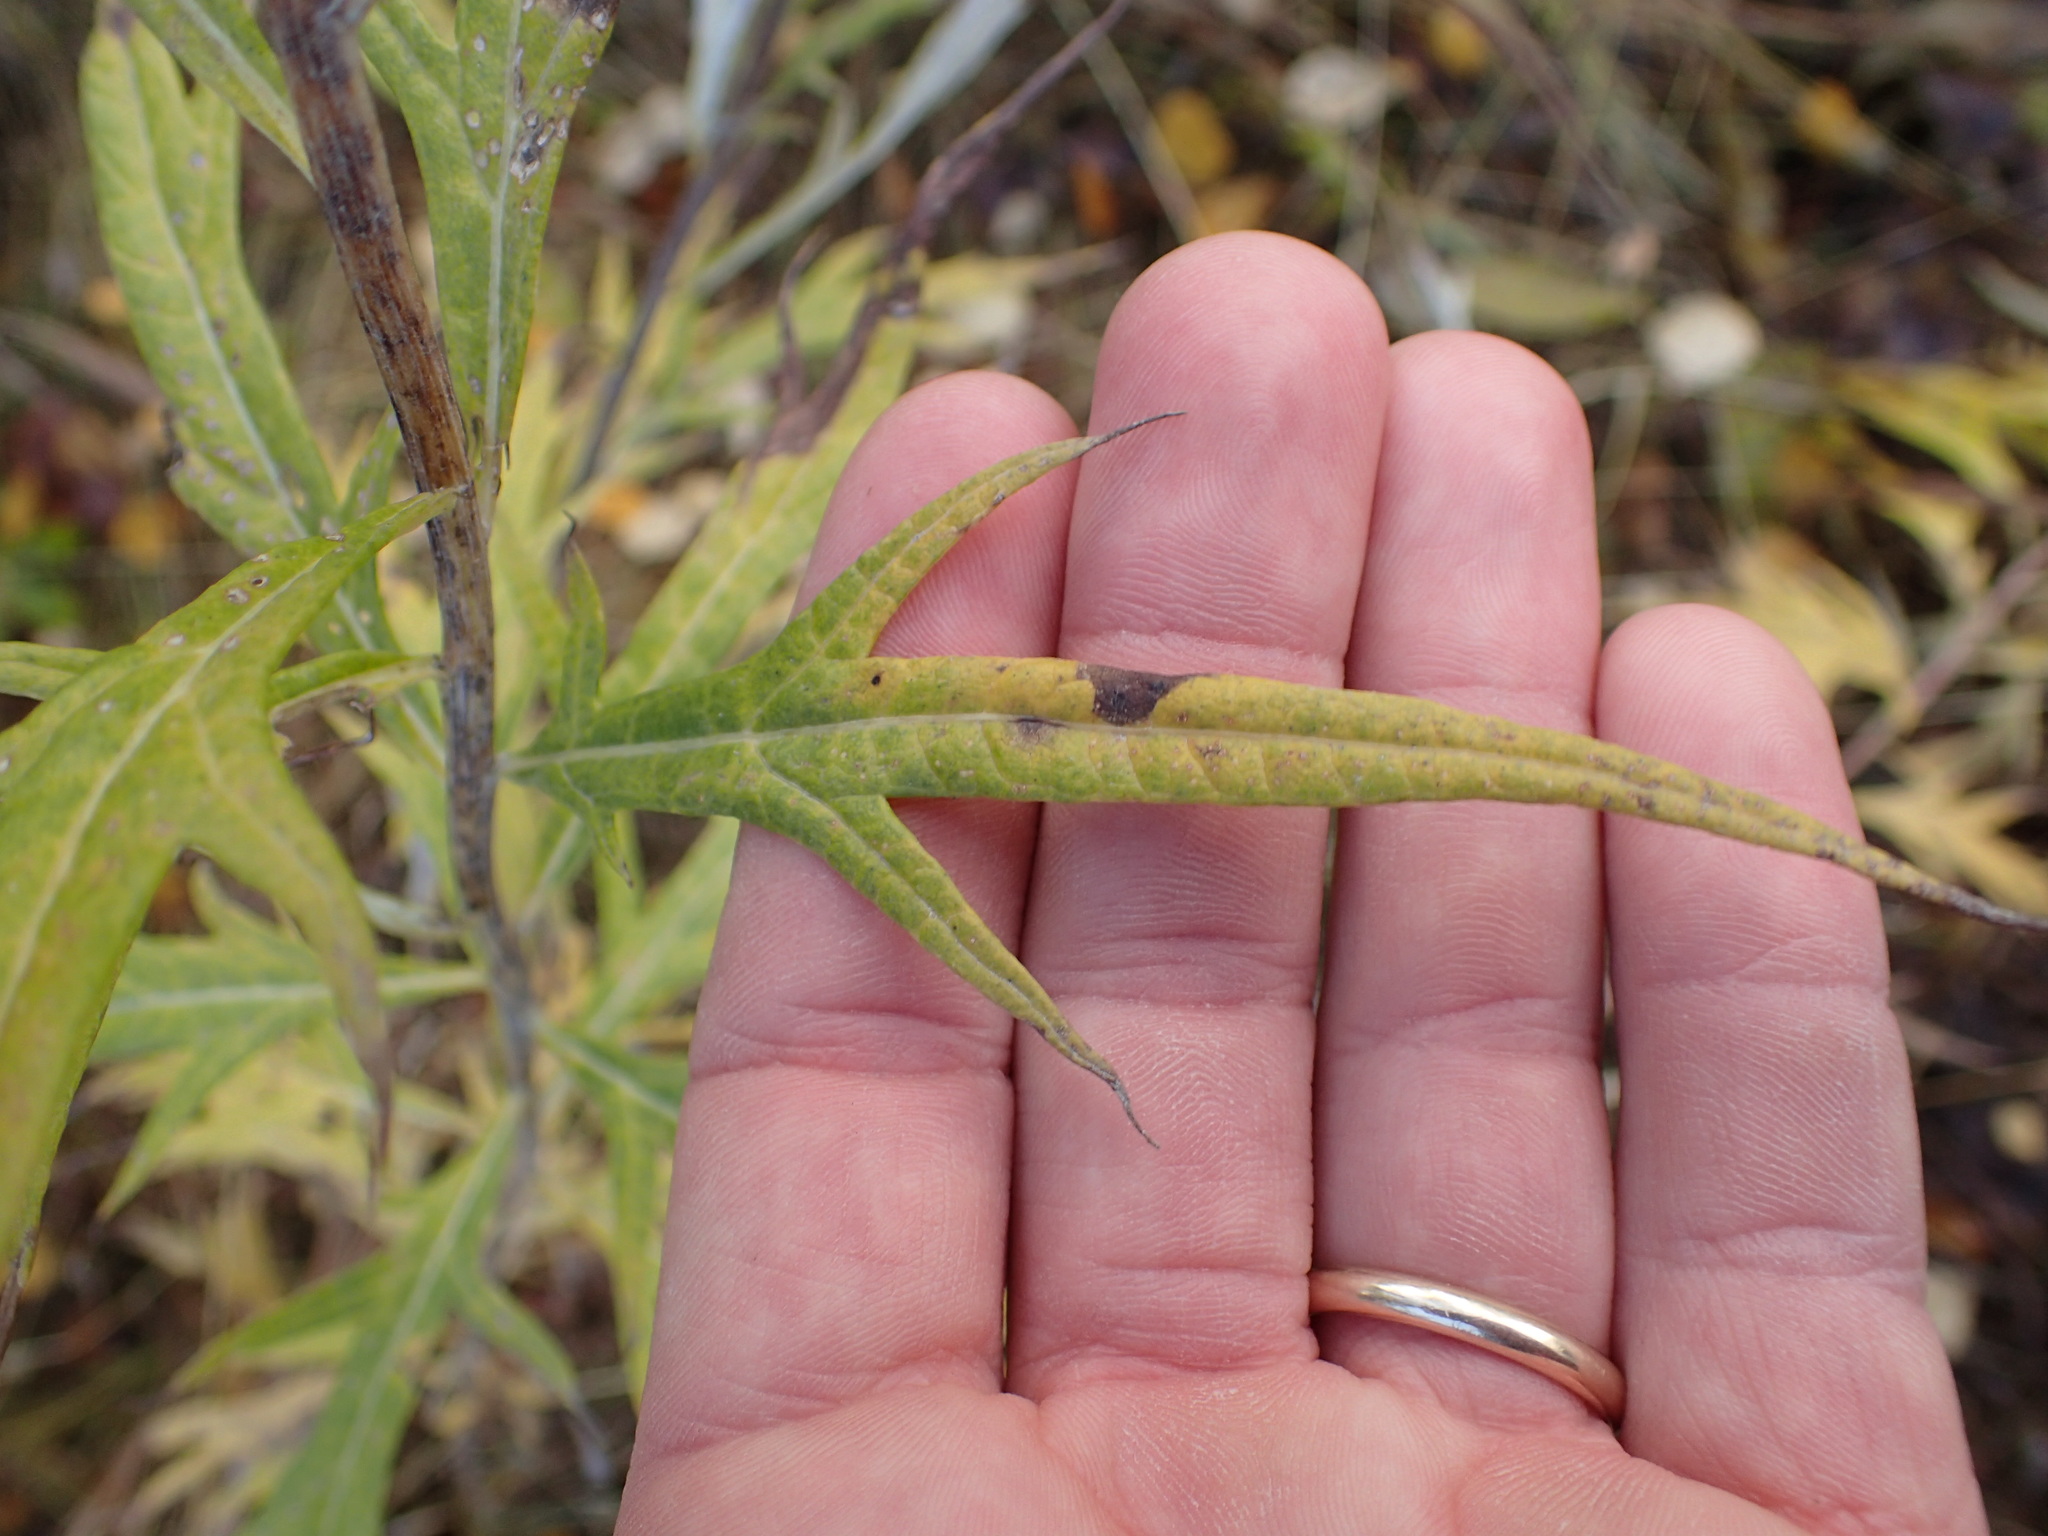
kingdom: Plantae
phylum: Tracheophyta
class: Magnoliopsida
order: Asterales
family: Asteraceae
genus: Artemisia
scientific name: Artemisia tilesii
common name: Aleutian mugwort
